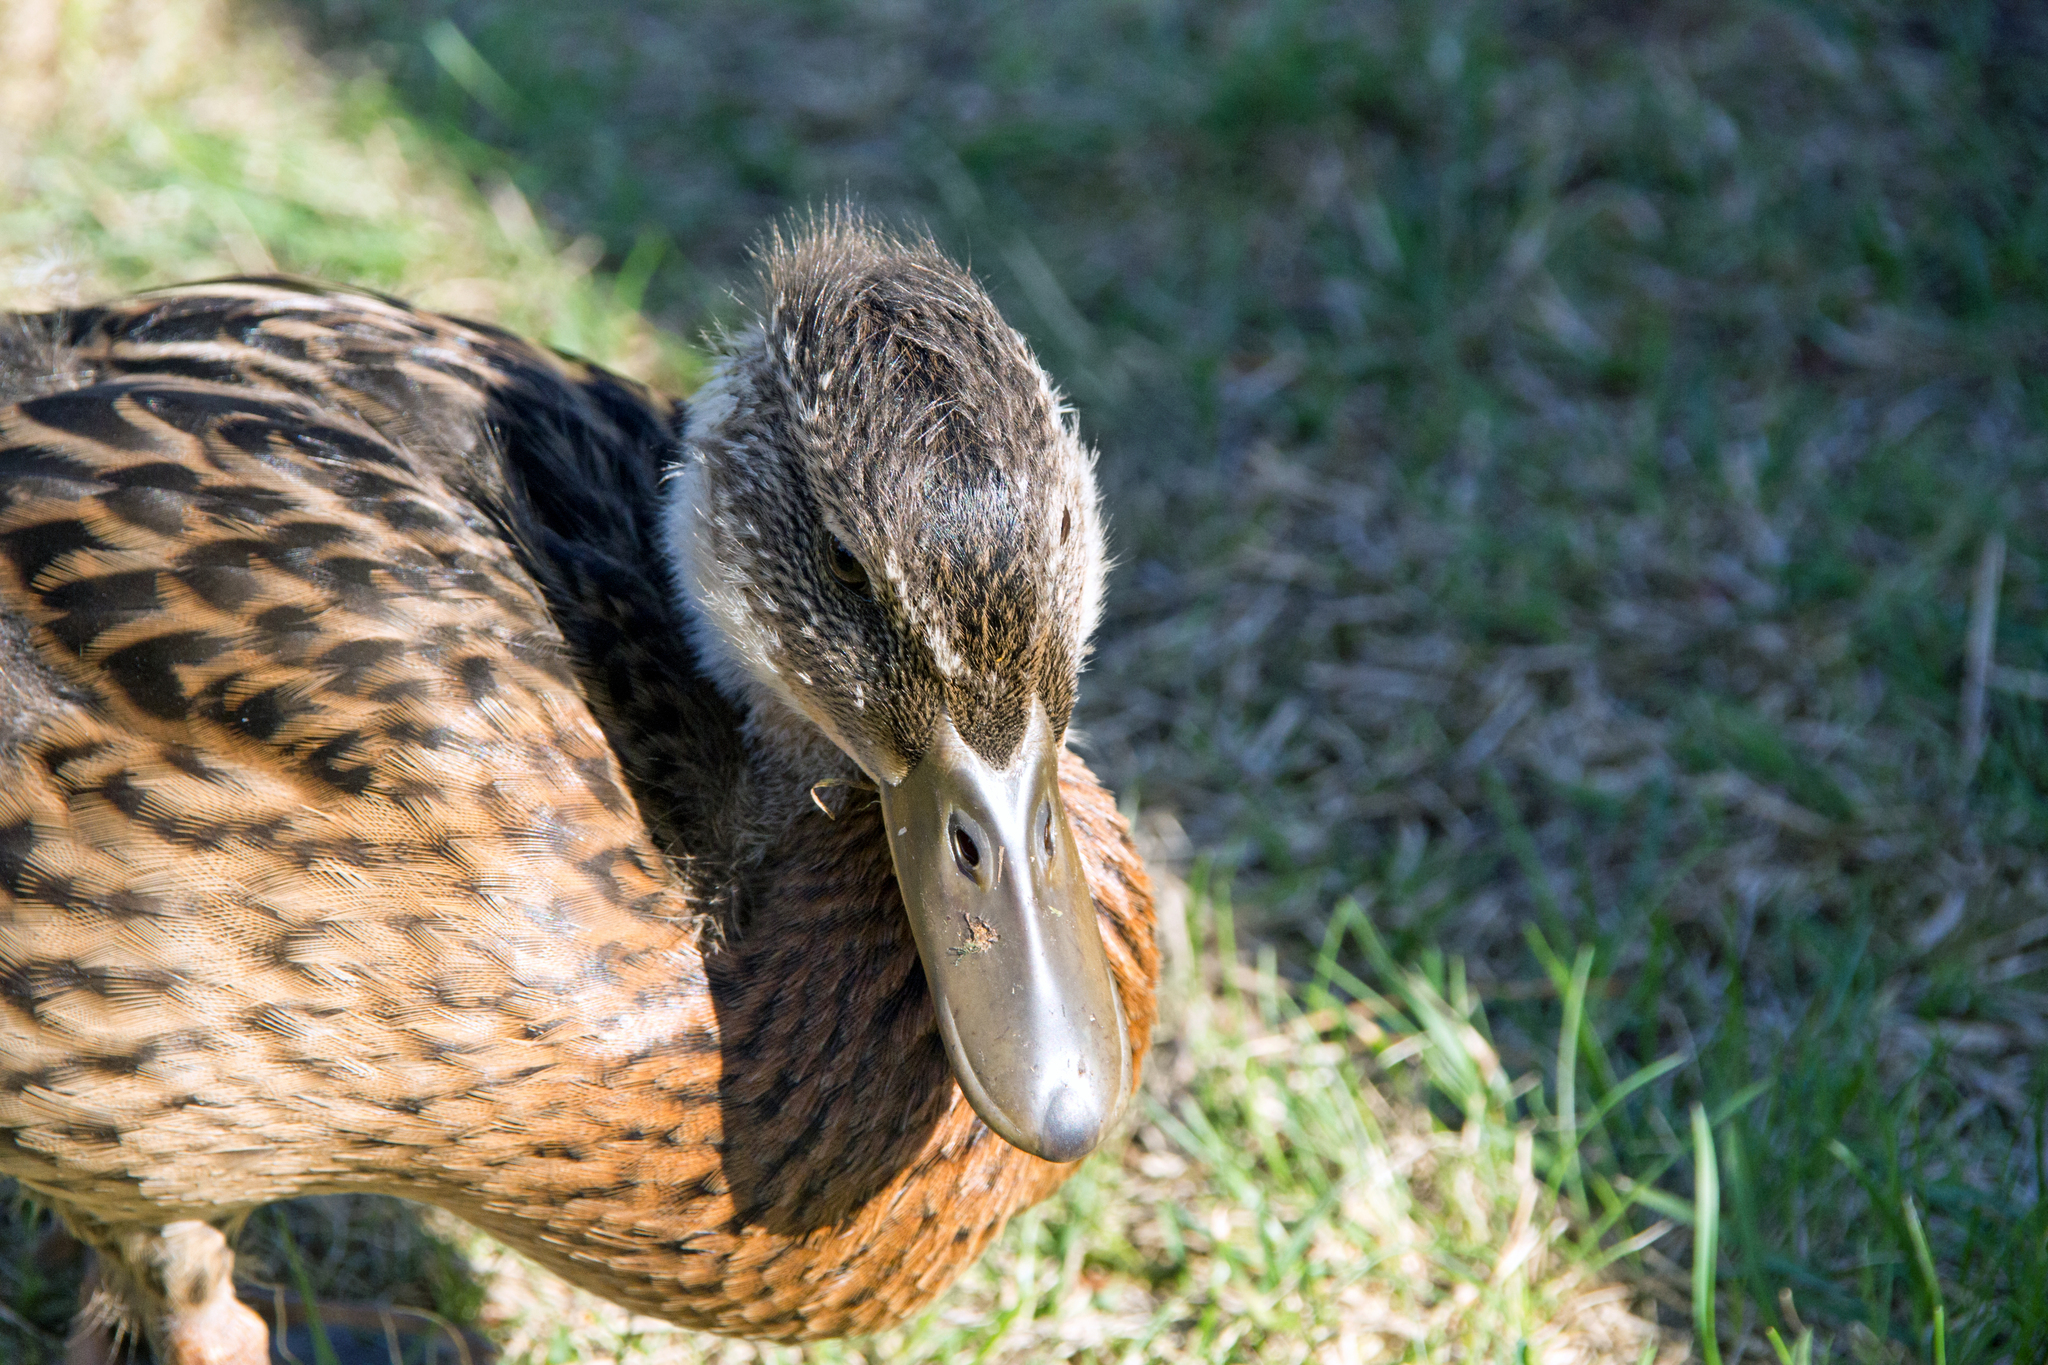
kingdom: Animalia
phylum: Chordata
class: Aves
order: Anseriformes
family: Anatidae
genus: Anas
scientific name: Anas platyrhynchos
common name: Mallard
